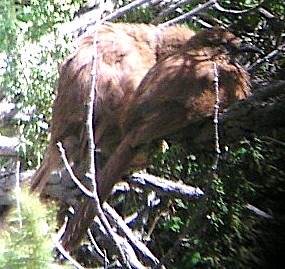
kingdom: Animalia
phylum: Chordata
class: Aves
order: Passeriformes
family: Leiothrichidae
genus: Babax
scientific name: Babax koslowi
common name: Tibetan babax
